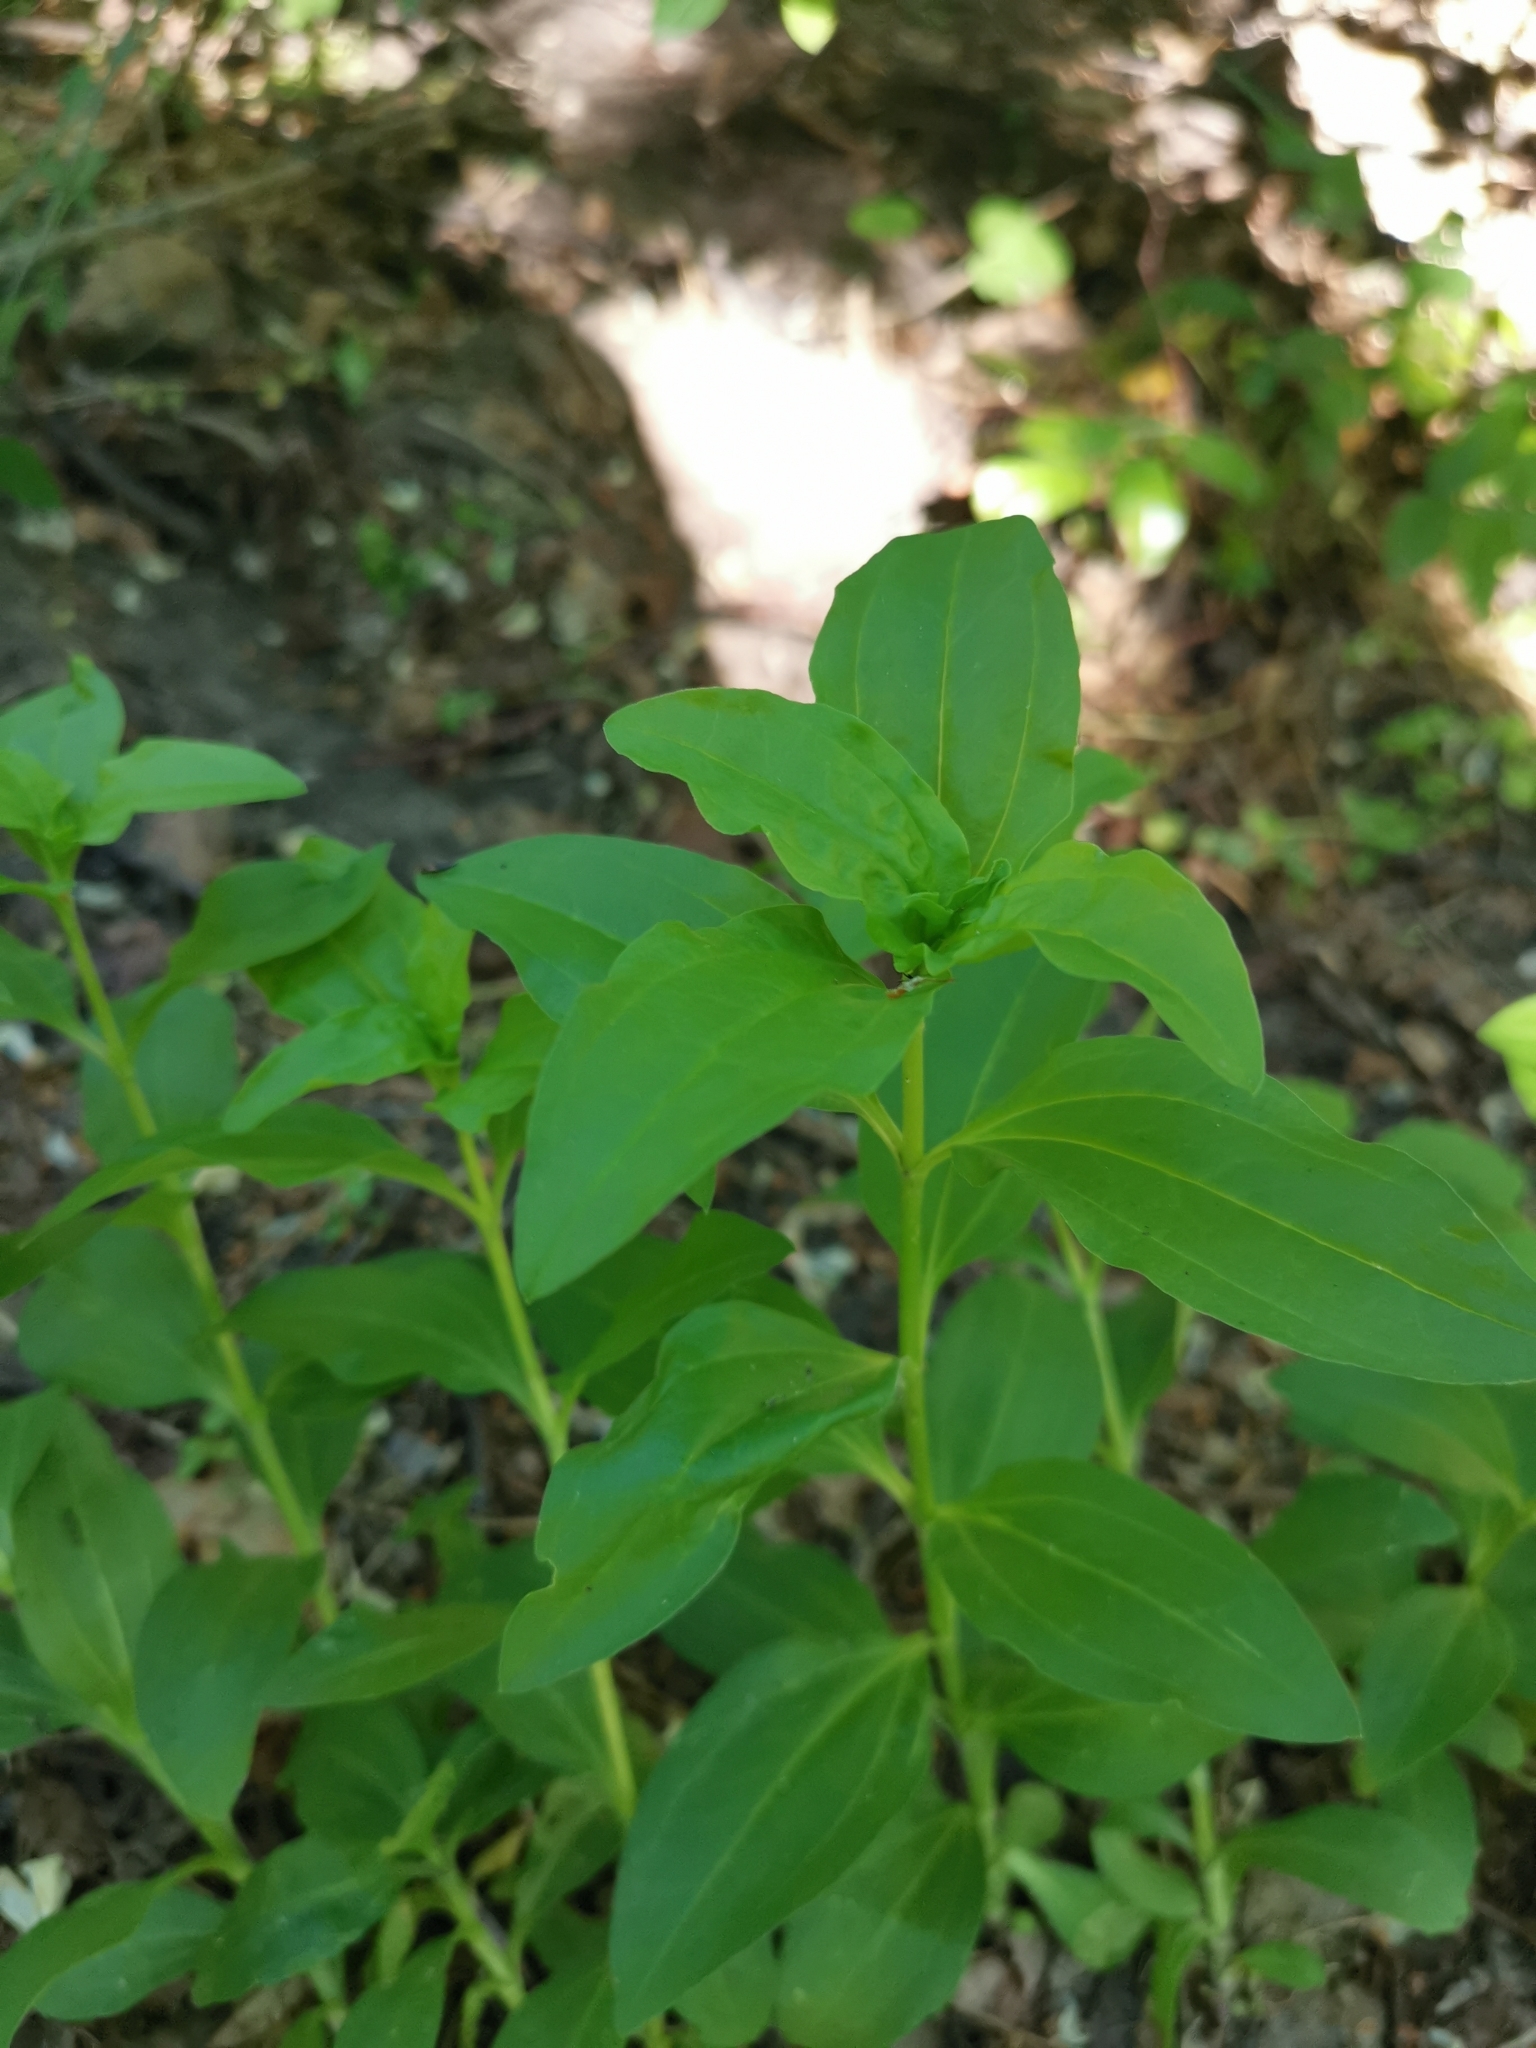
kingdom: Plantae
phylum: Tracheophyta
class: Magnoliopsida
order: Caryophyllales
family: Caryophyllaceae
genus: Saponaria
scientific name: Saponaria officinalis
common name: Soapwort
